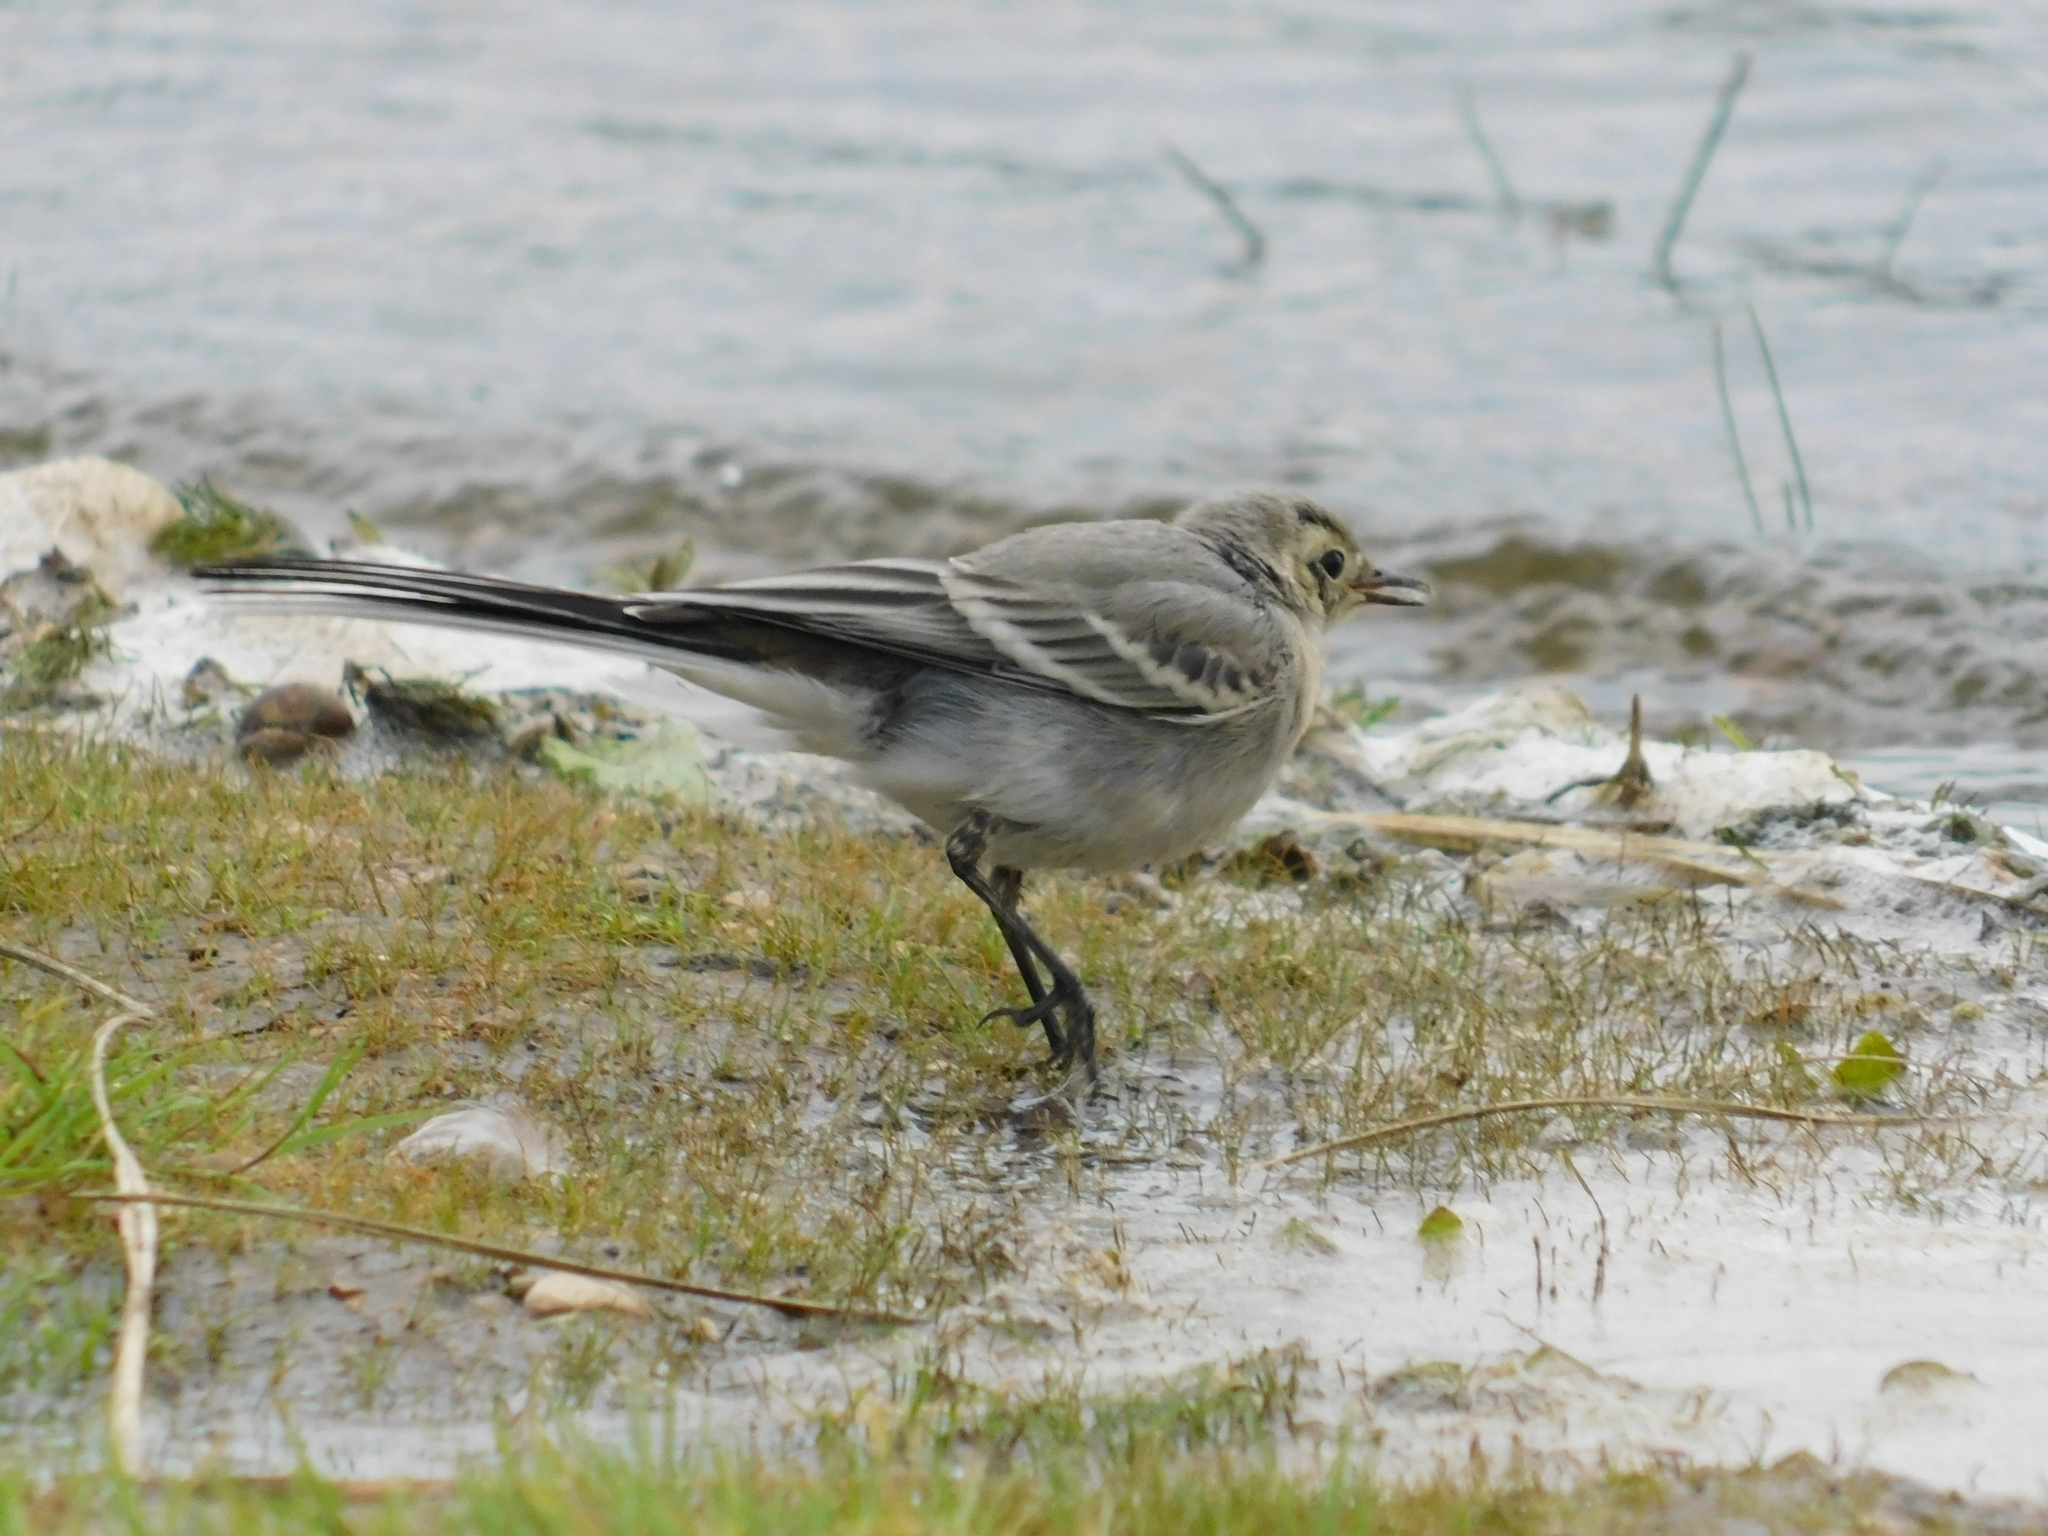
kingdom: Animalia
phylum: Chordata
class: Aves
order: Passeriformes
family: Motacillidae
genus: Motacilla
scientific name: Motacilla alba
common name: White wagtail
